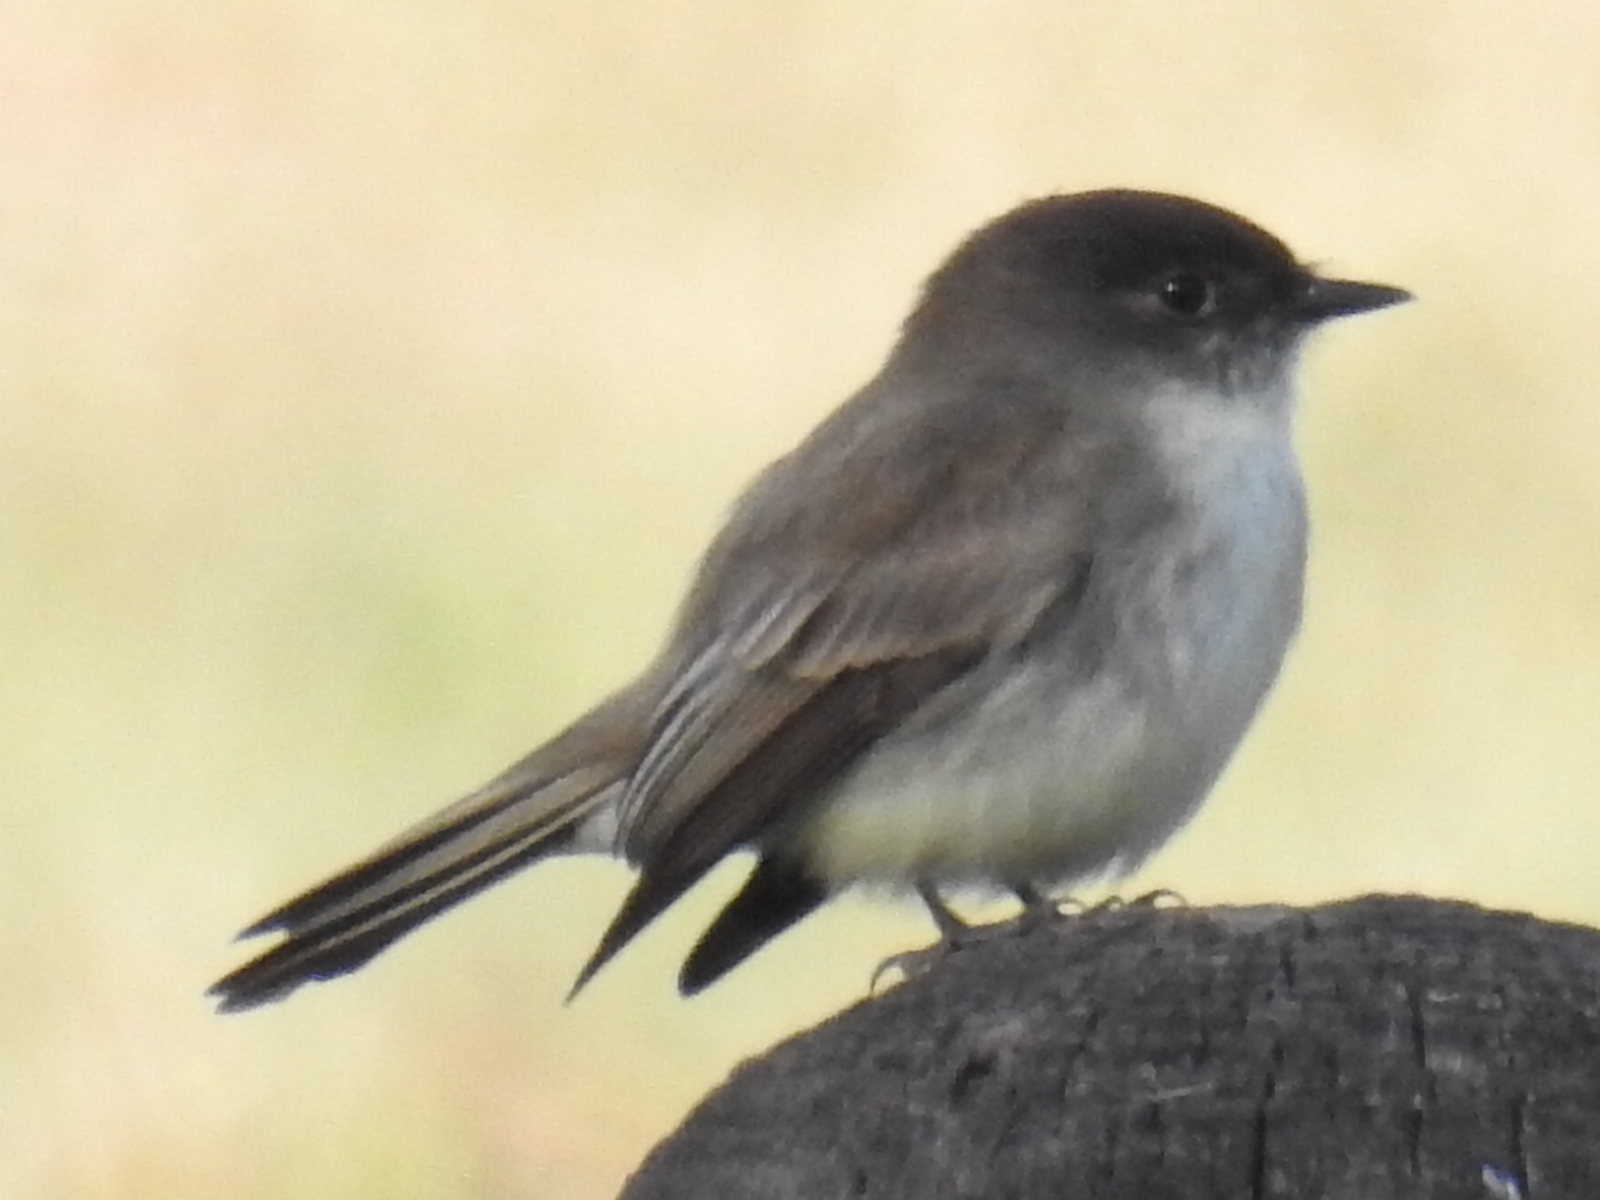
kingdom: Animalia
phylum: Chordata
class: Aves
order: Passeriformes
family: Tyrannidae
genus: Sayornis
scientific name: Sayornis phoebe
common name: Eastern phoebe
